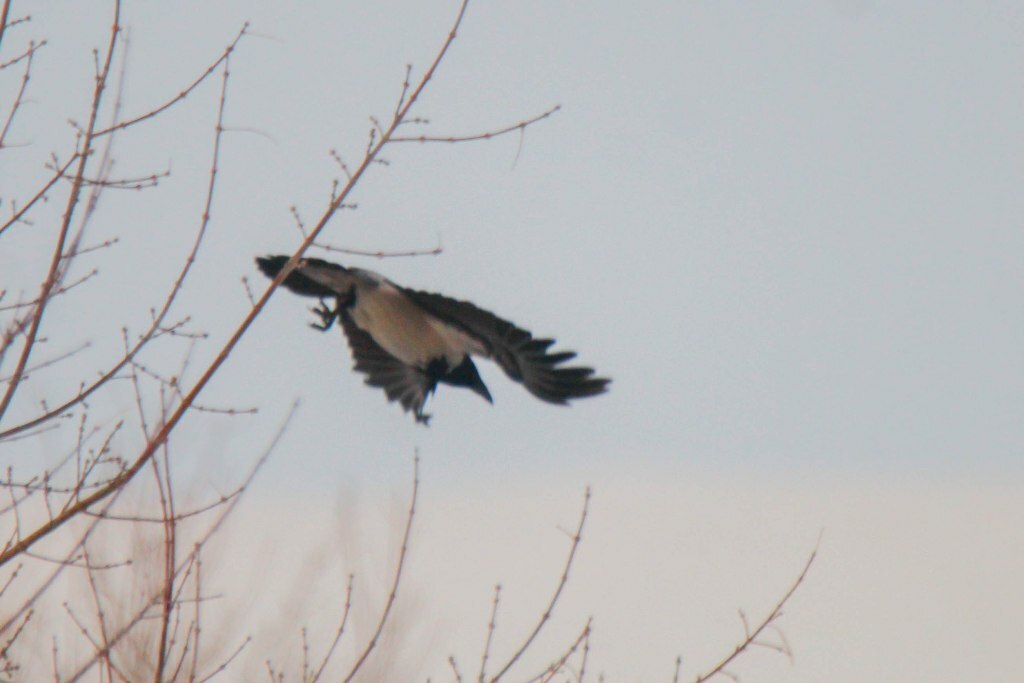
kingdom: Animalia
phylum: Chordata
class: Aves
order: Passeriformes
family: Corvidae
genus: Corvus
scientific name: Corvus cornix
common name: Hooded crow
